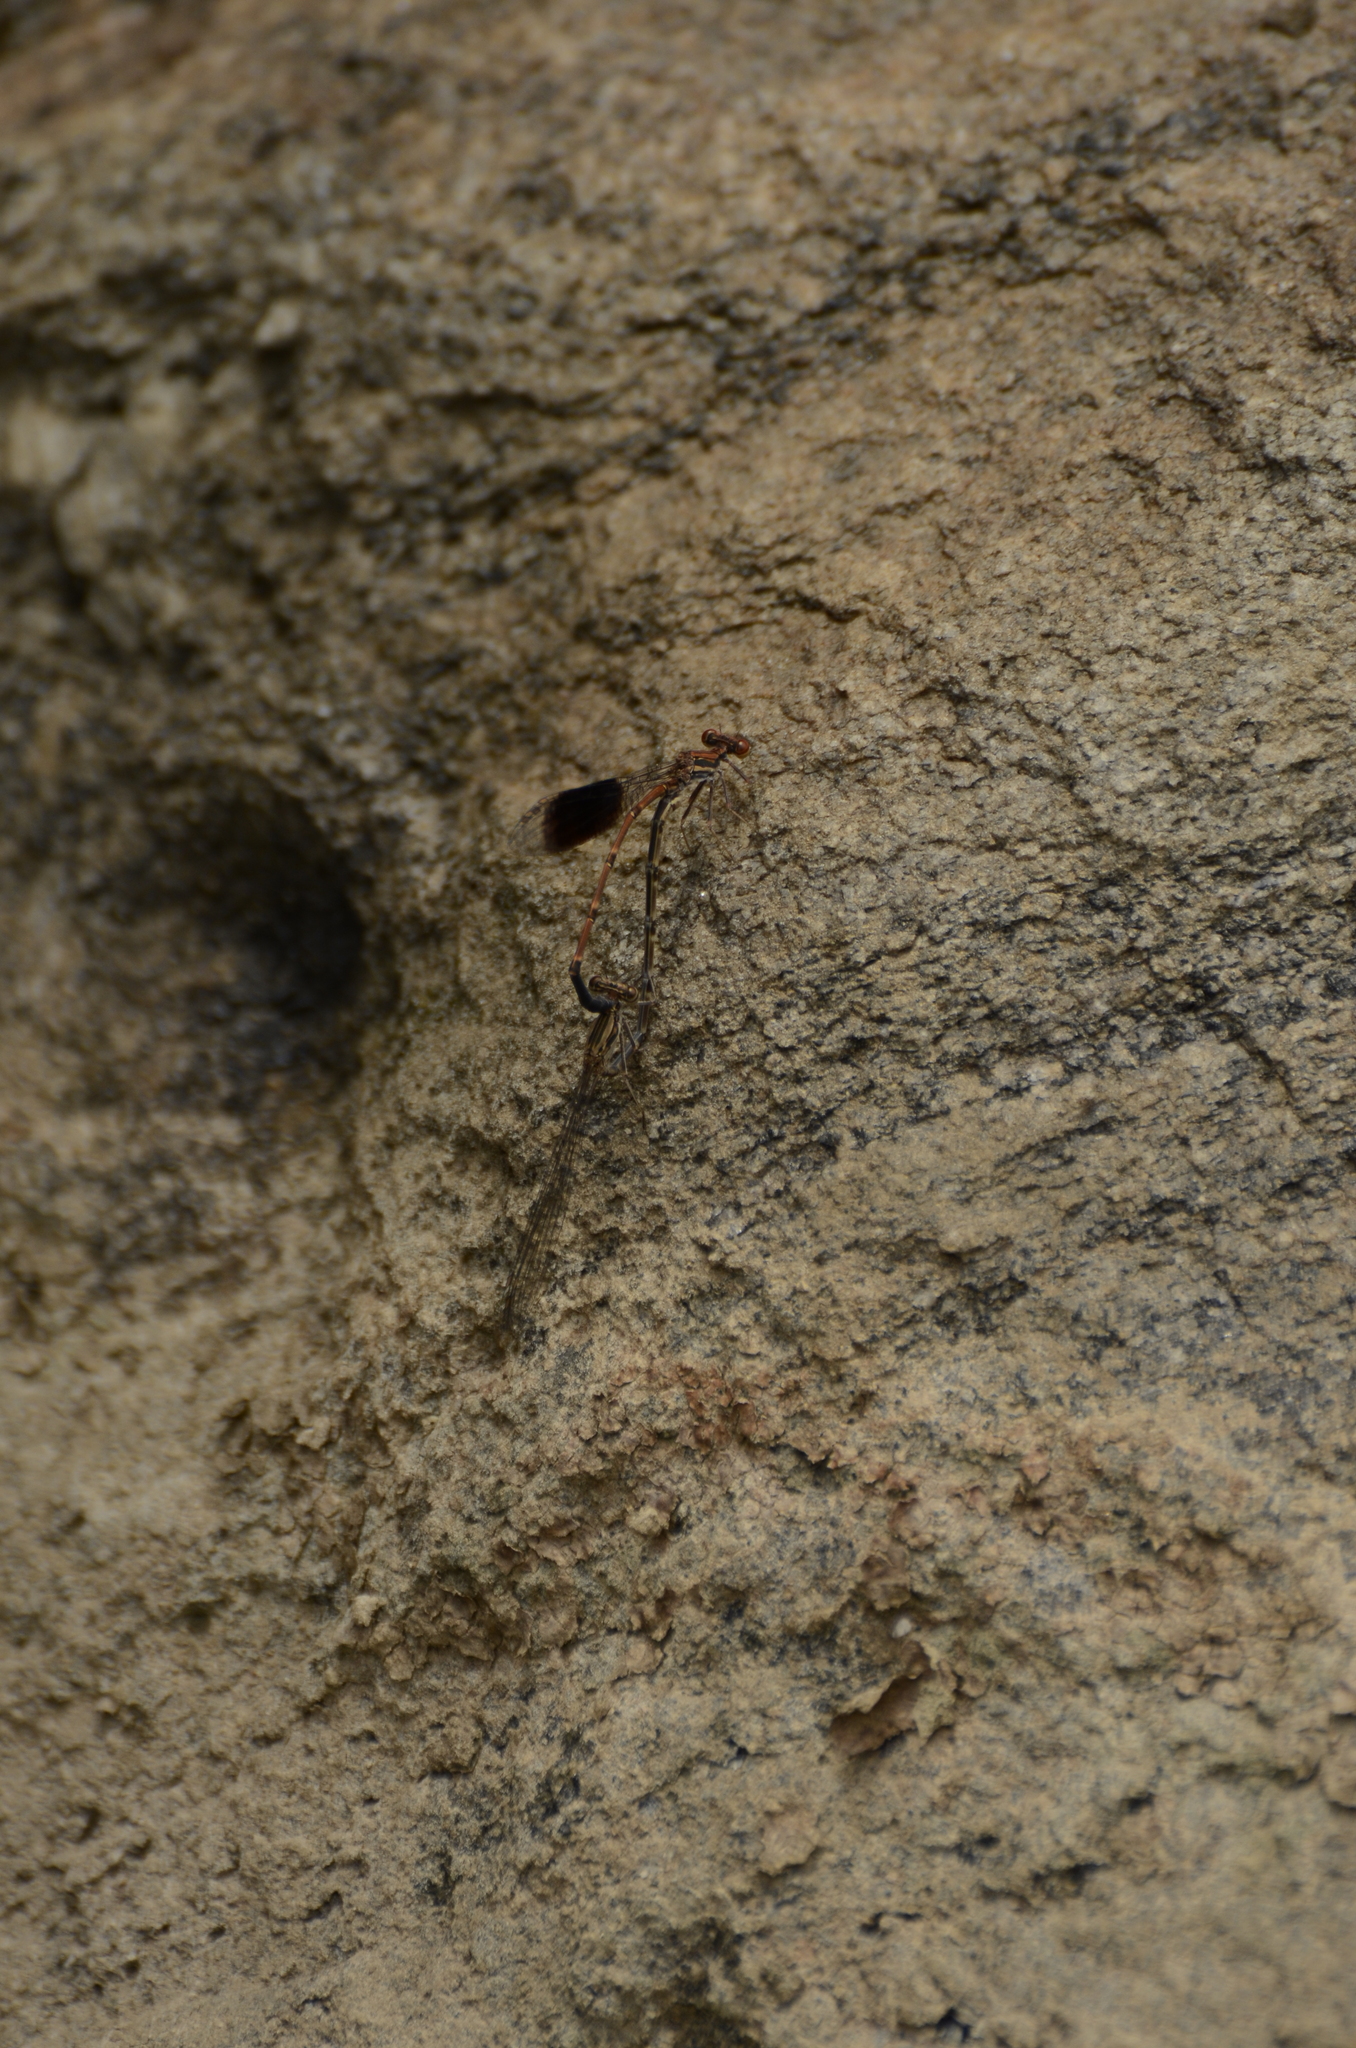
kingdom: Animalia
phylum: Arthropoda
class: Insecta
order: Odonata
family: Platycnemididae
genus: Disparoneura
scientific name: Disparoneura quadrimaculata
